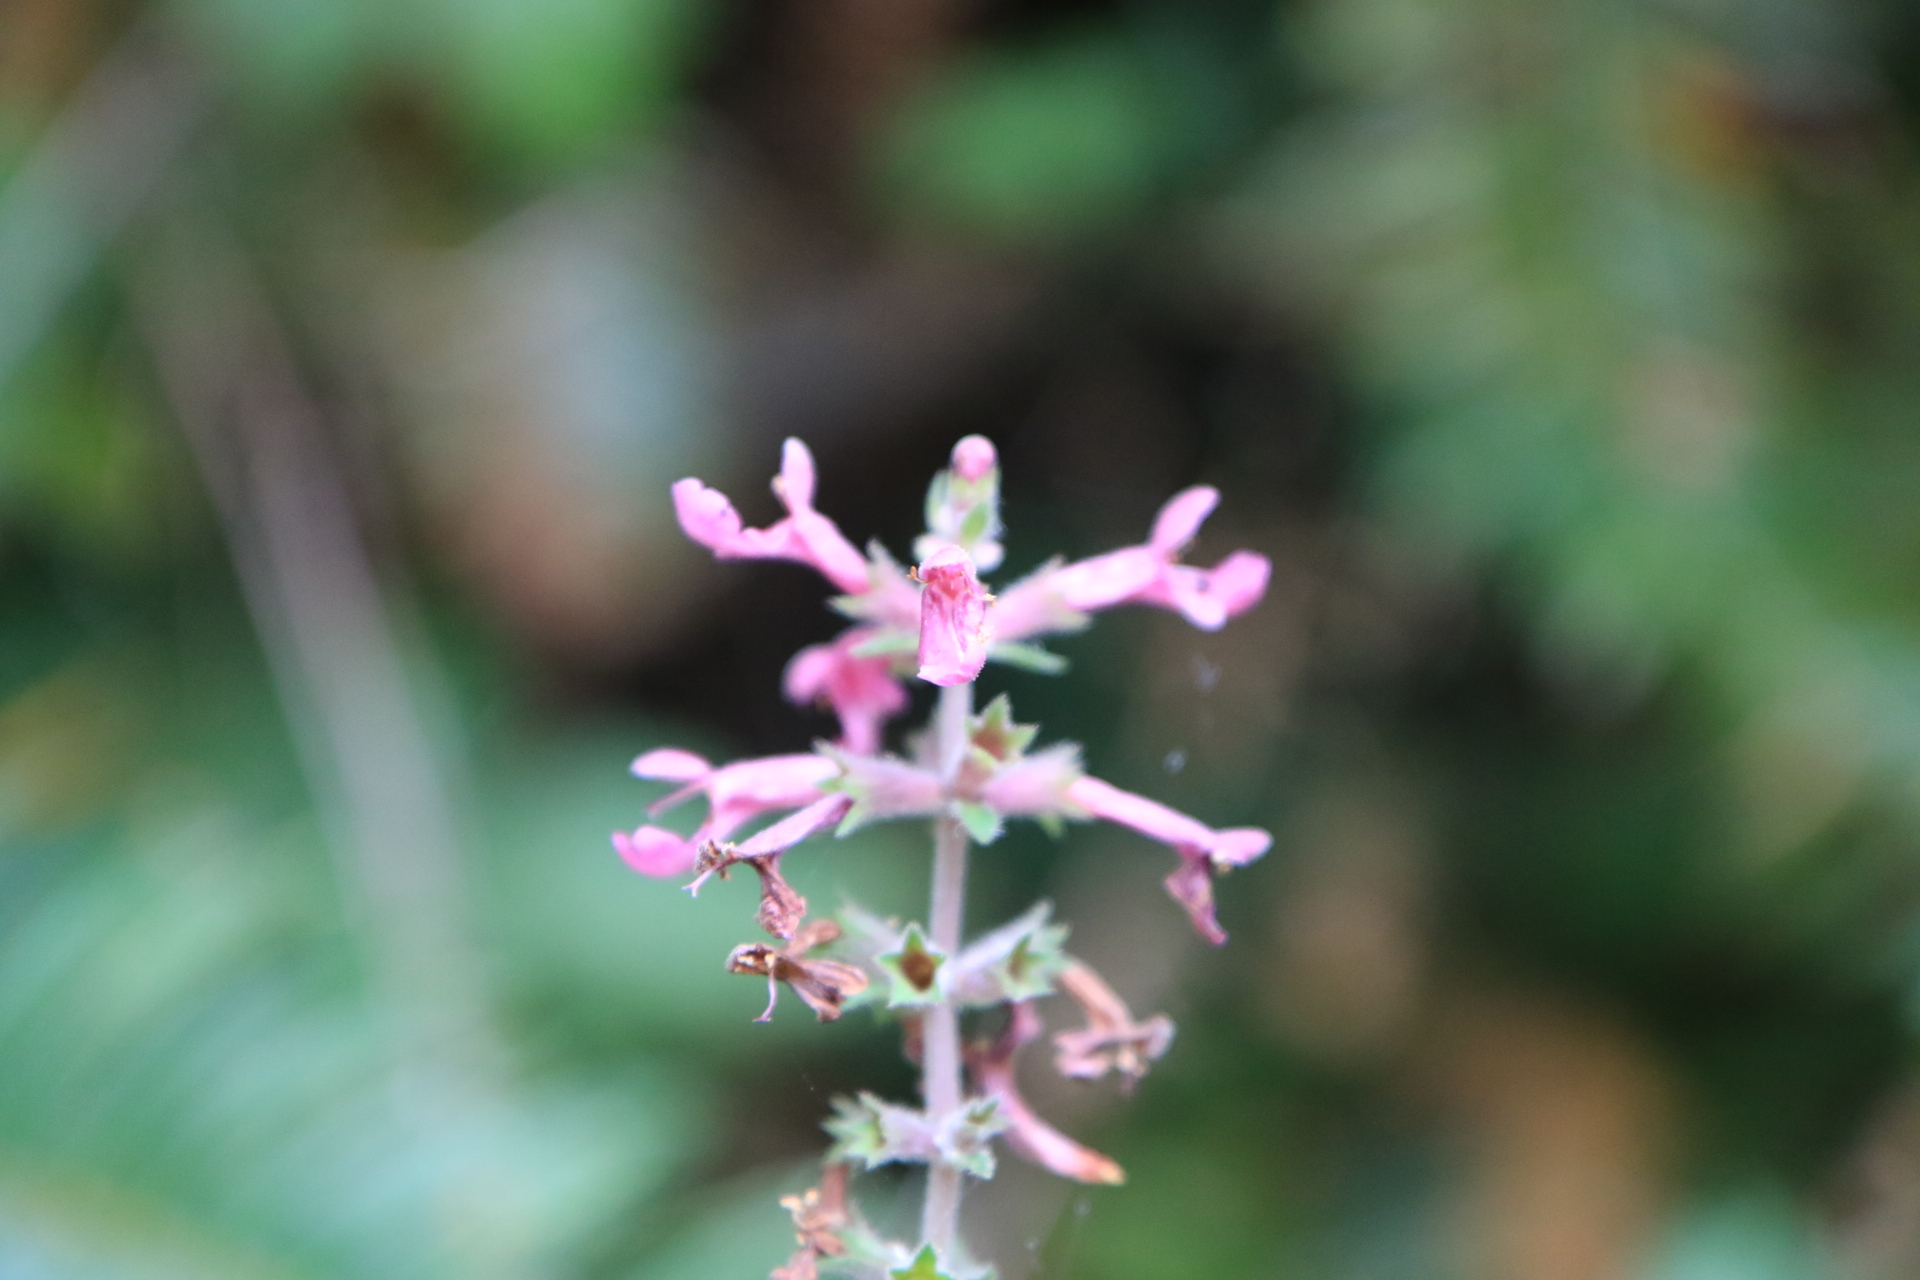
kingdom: Plantae
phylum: Tracheophyta
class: Magnoliopsida
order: Lamiales
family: Lamiaceae
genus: Stachys
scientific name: Stachys chamissonis
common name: Coastal hedge-nettle
